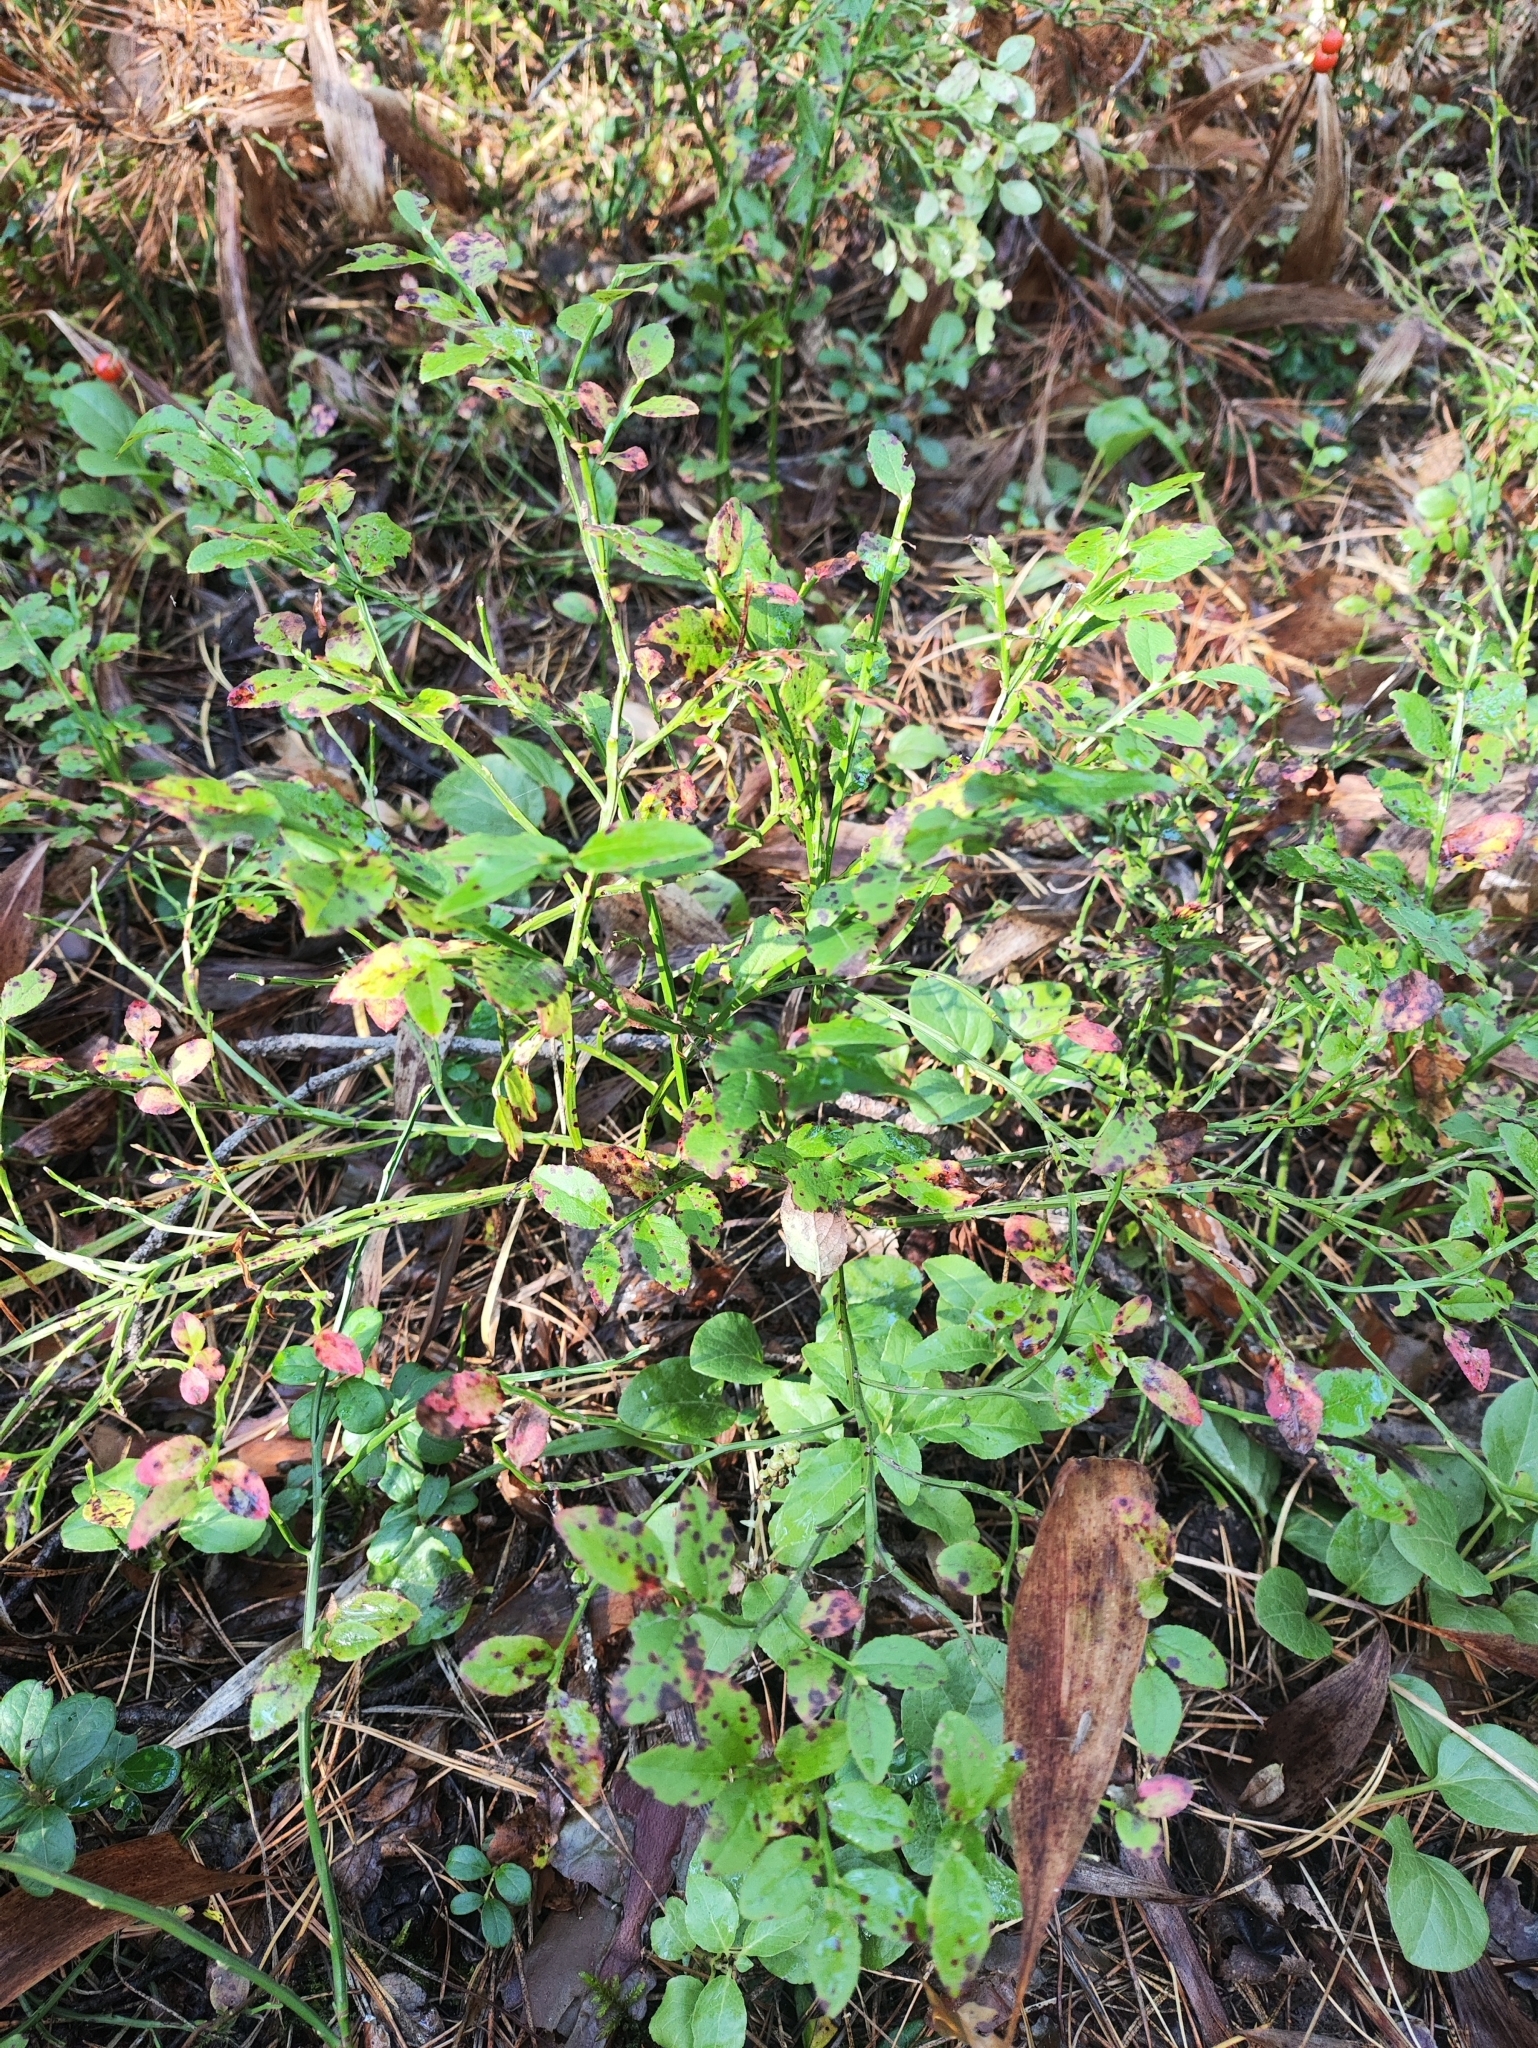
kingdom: Plantae
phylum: Tracheophyta
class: Magnoliopsida
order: Ericales
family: Ericaceae
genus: Vaccinium
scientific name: Vaccinium myrtillus
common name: Bilberry
